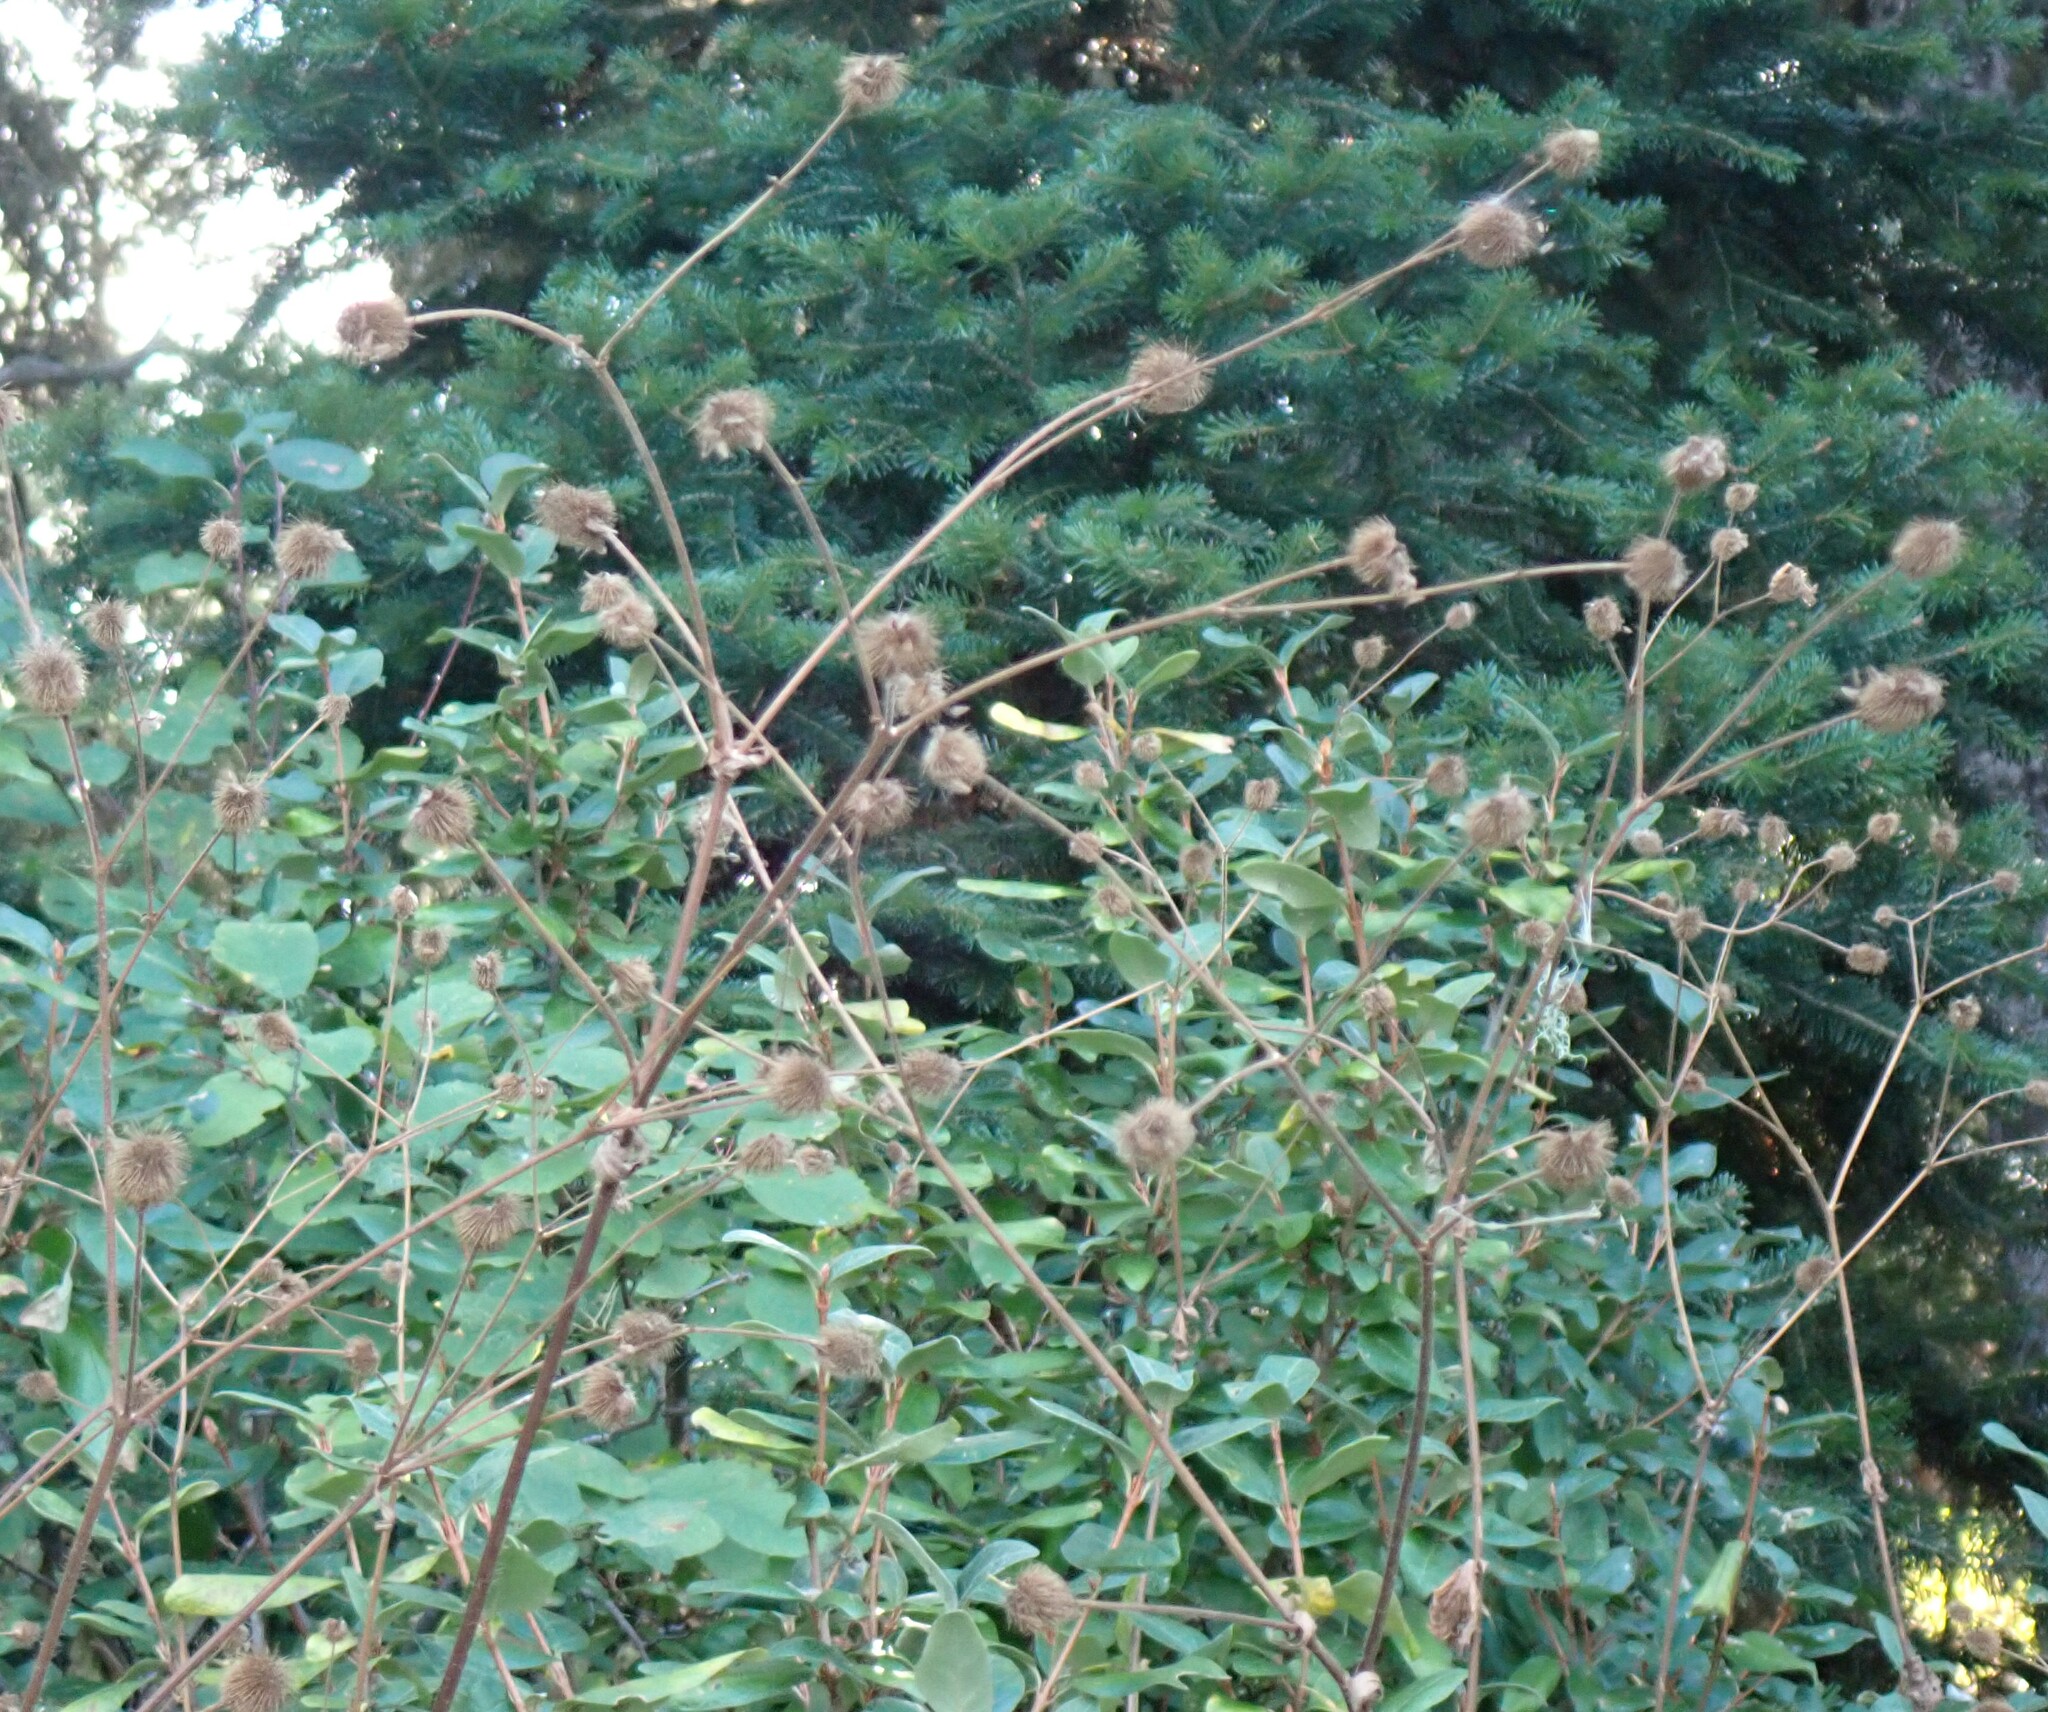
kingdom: Plantae
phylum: Tracheophyta
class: Magnoliopsida
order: Rosales
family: Rosaceae
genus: Geum
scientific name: Geum macrophyllum
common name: Large-leaved avens
